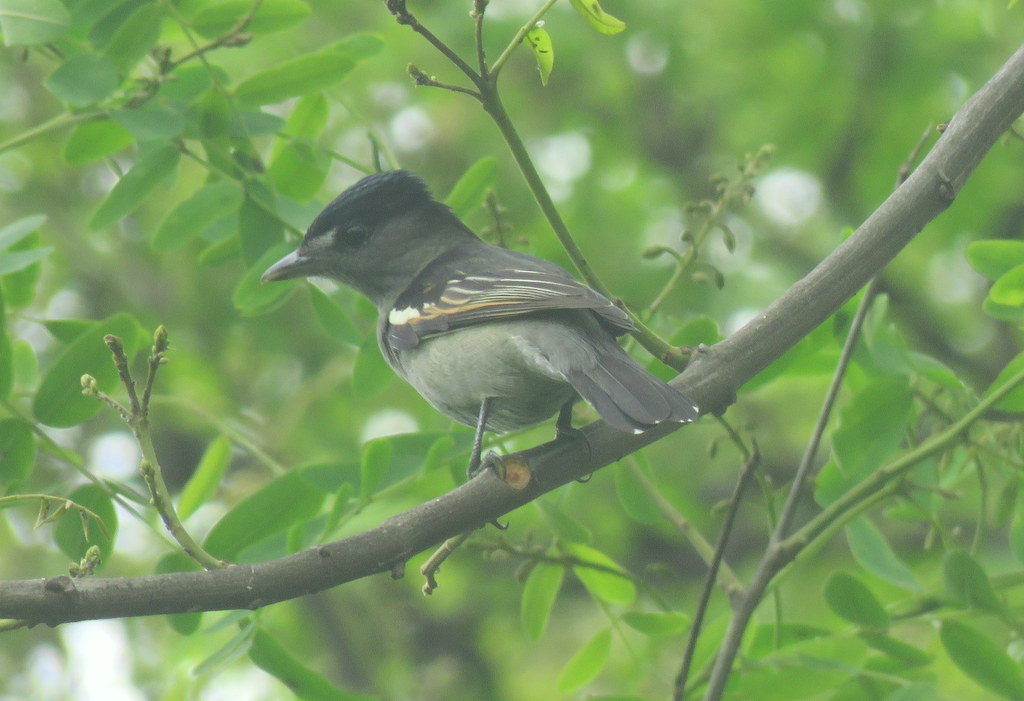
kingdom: Animalia
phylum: Chordata
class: Aves
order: Passeriformes
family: Cotingidae
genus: Pachyramphus
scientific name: Pachyramphus polychopterus
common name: White-winged becard
